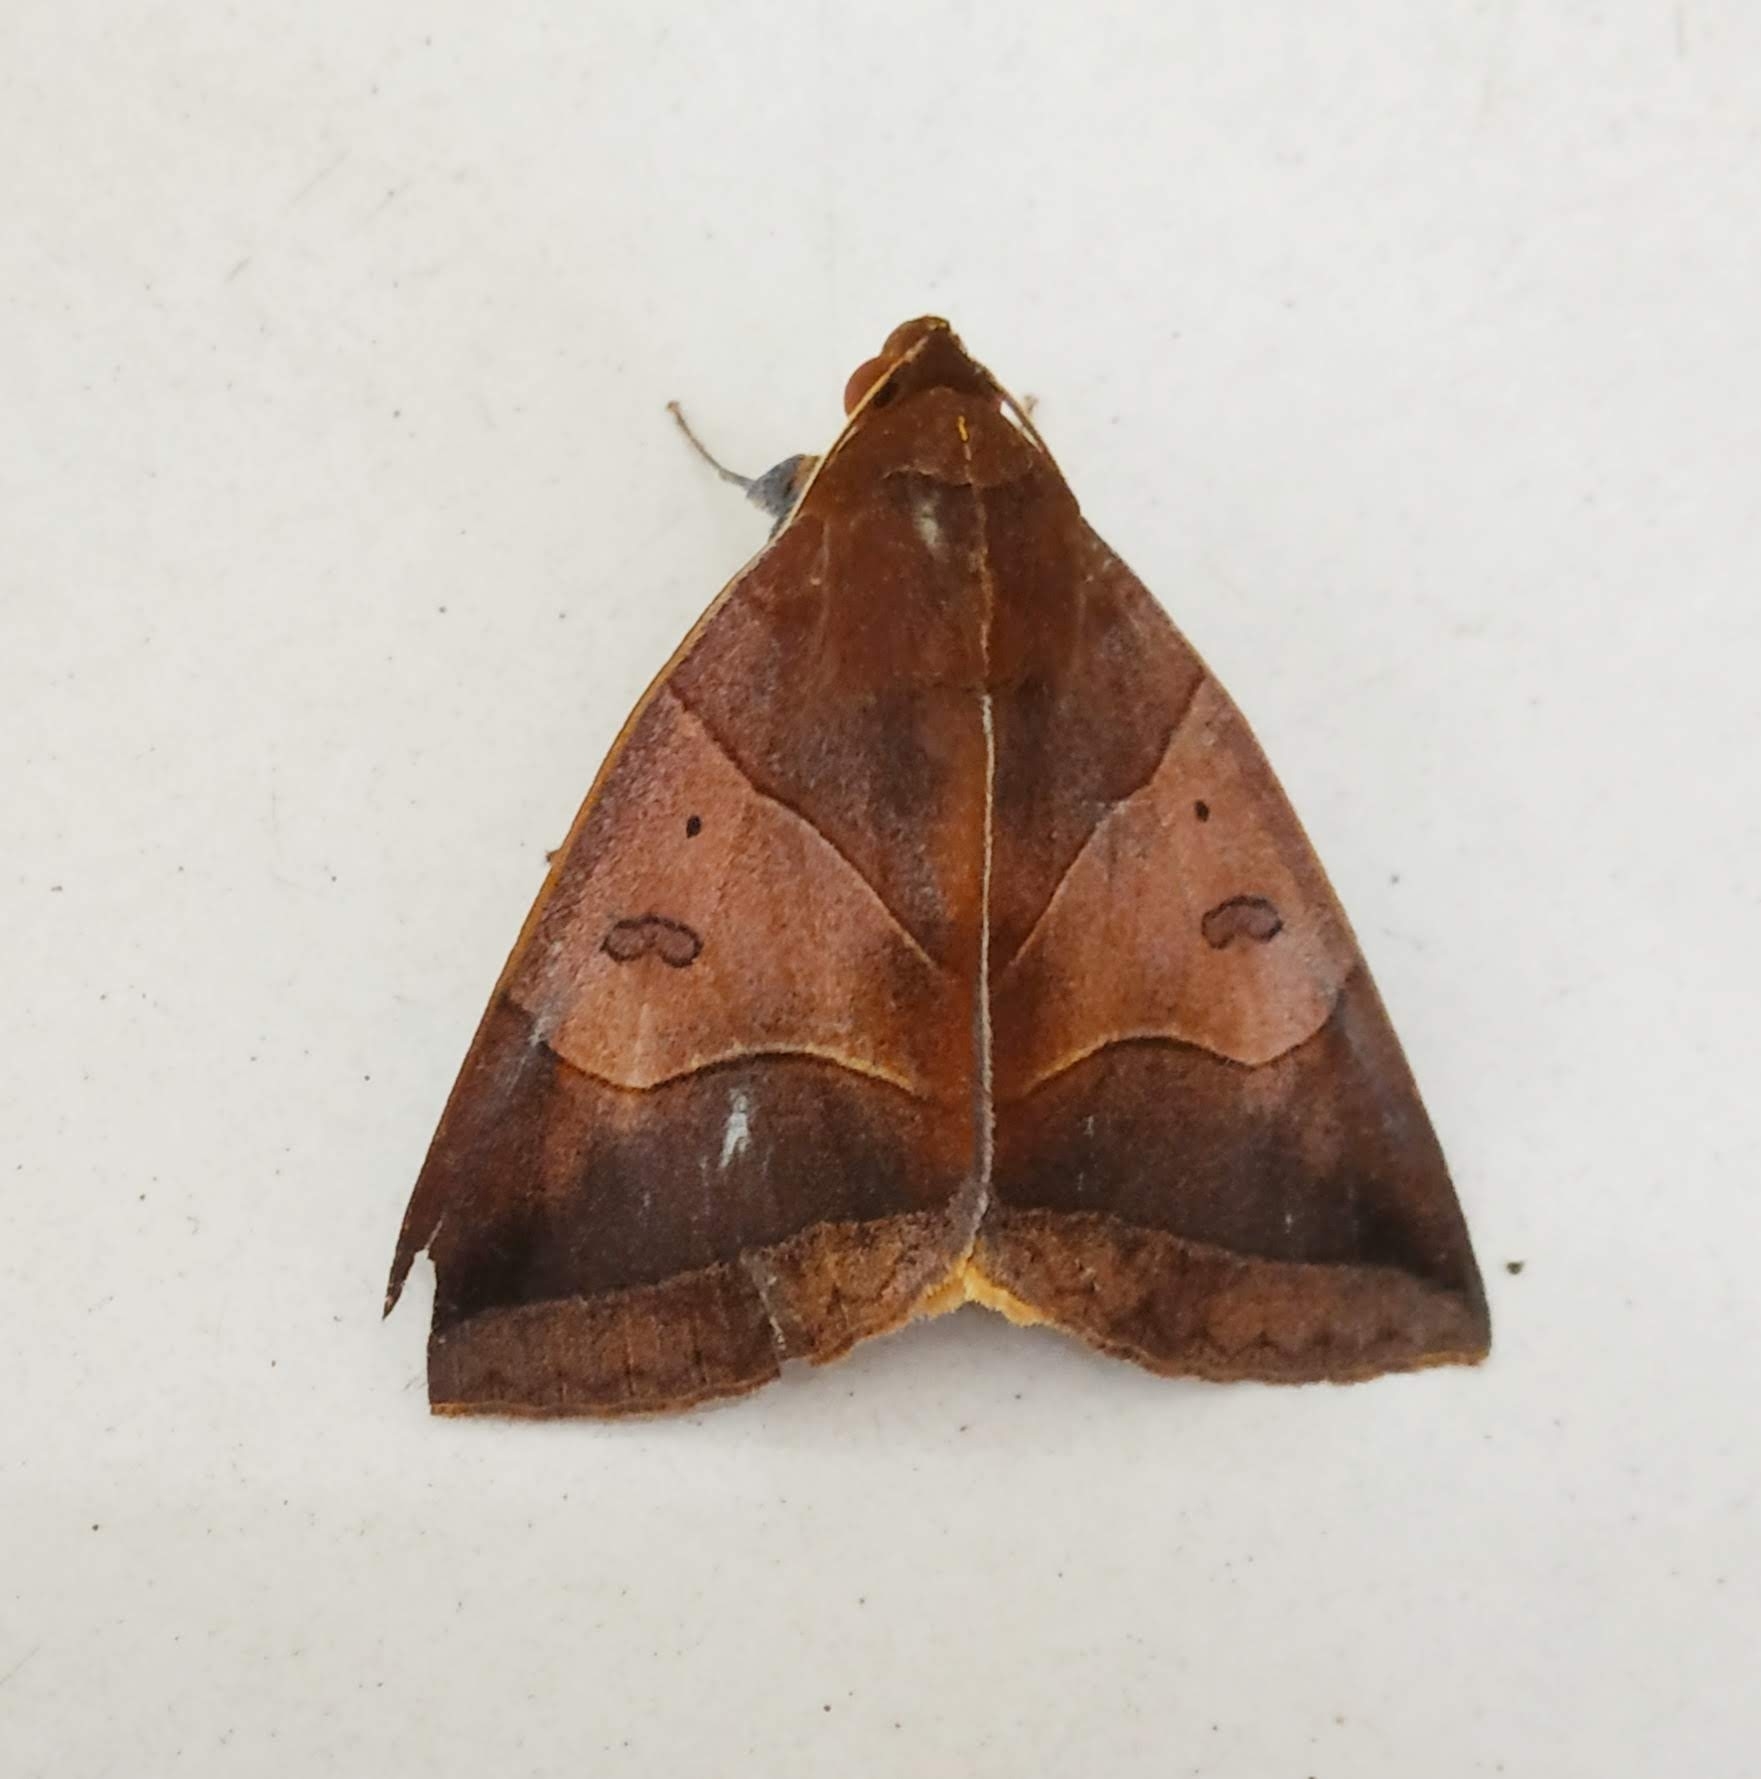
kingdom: Animalia
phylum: Arthropoda
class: Insecta
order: Lepidoptera
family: Erebidae
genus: Artena
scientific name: Artena submira
